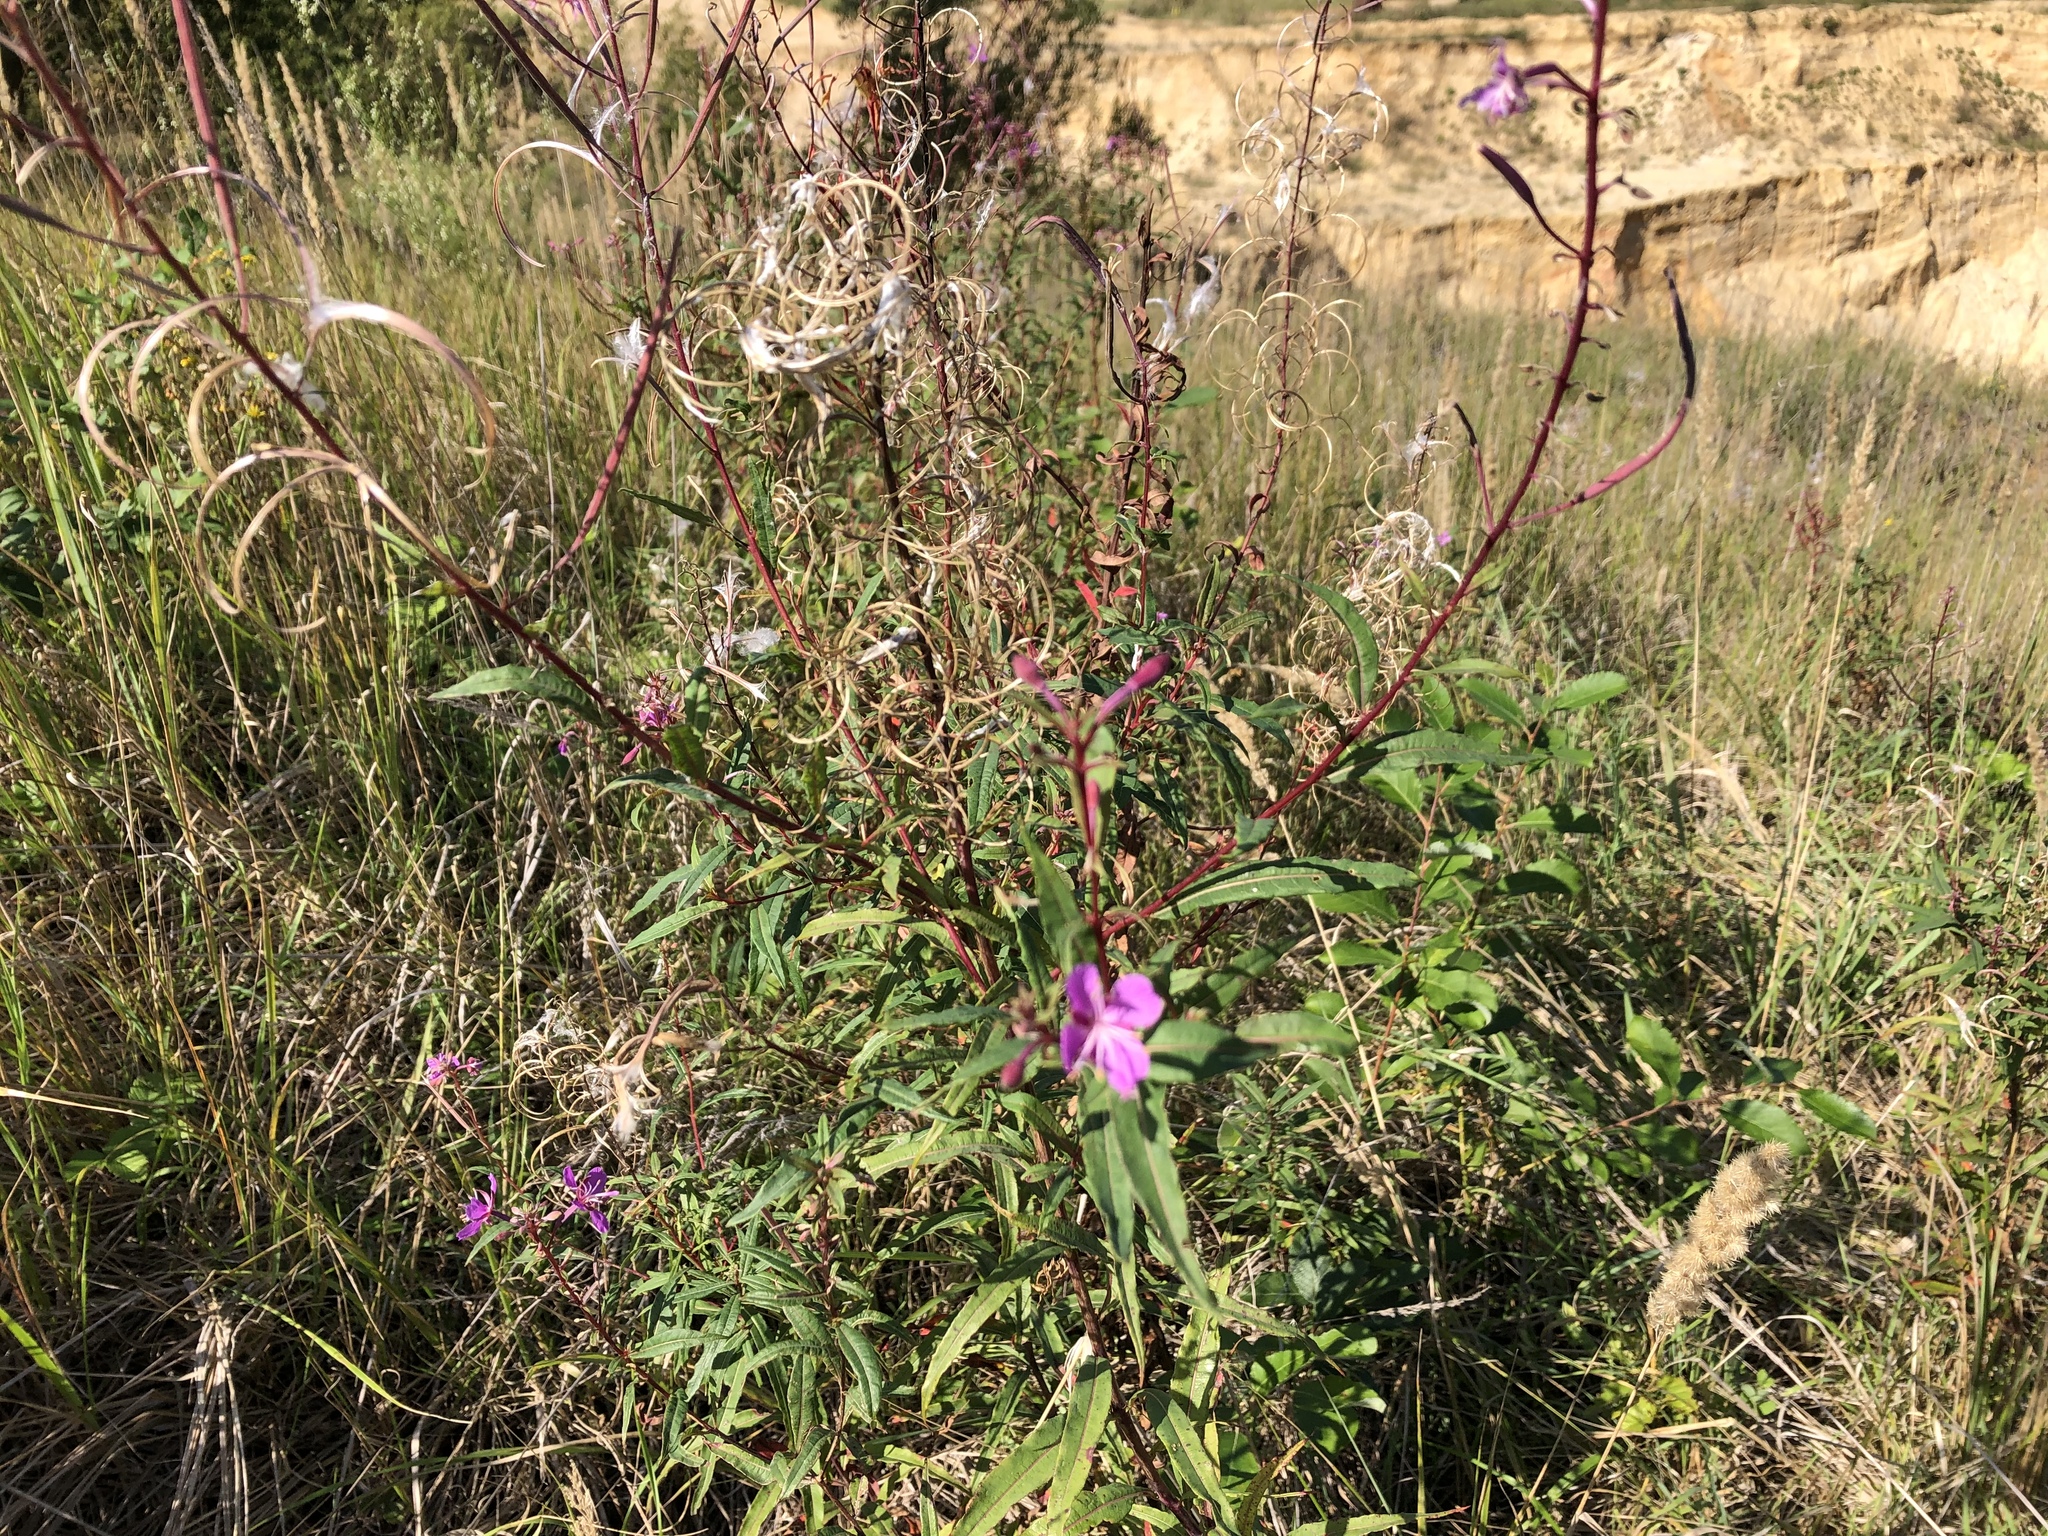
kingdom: Plantae
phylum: Tracheophyta
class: Magnoliopsida
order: Myrtales
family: Onagraceae
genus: Chamaenerion
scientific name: Chamaenerion angustifolium
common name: Fireweed
